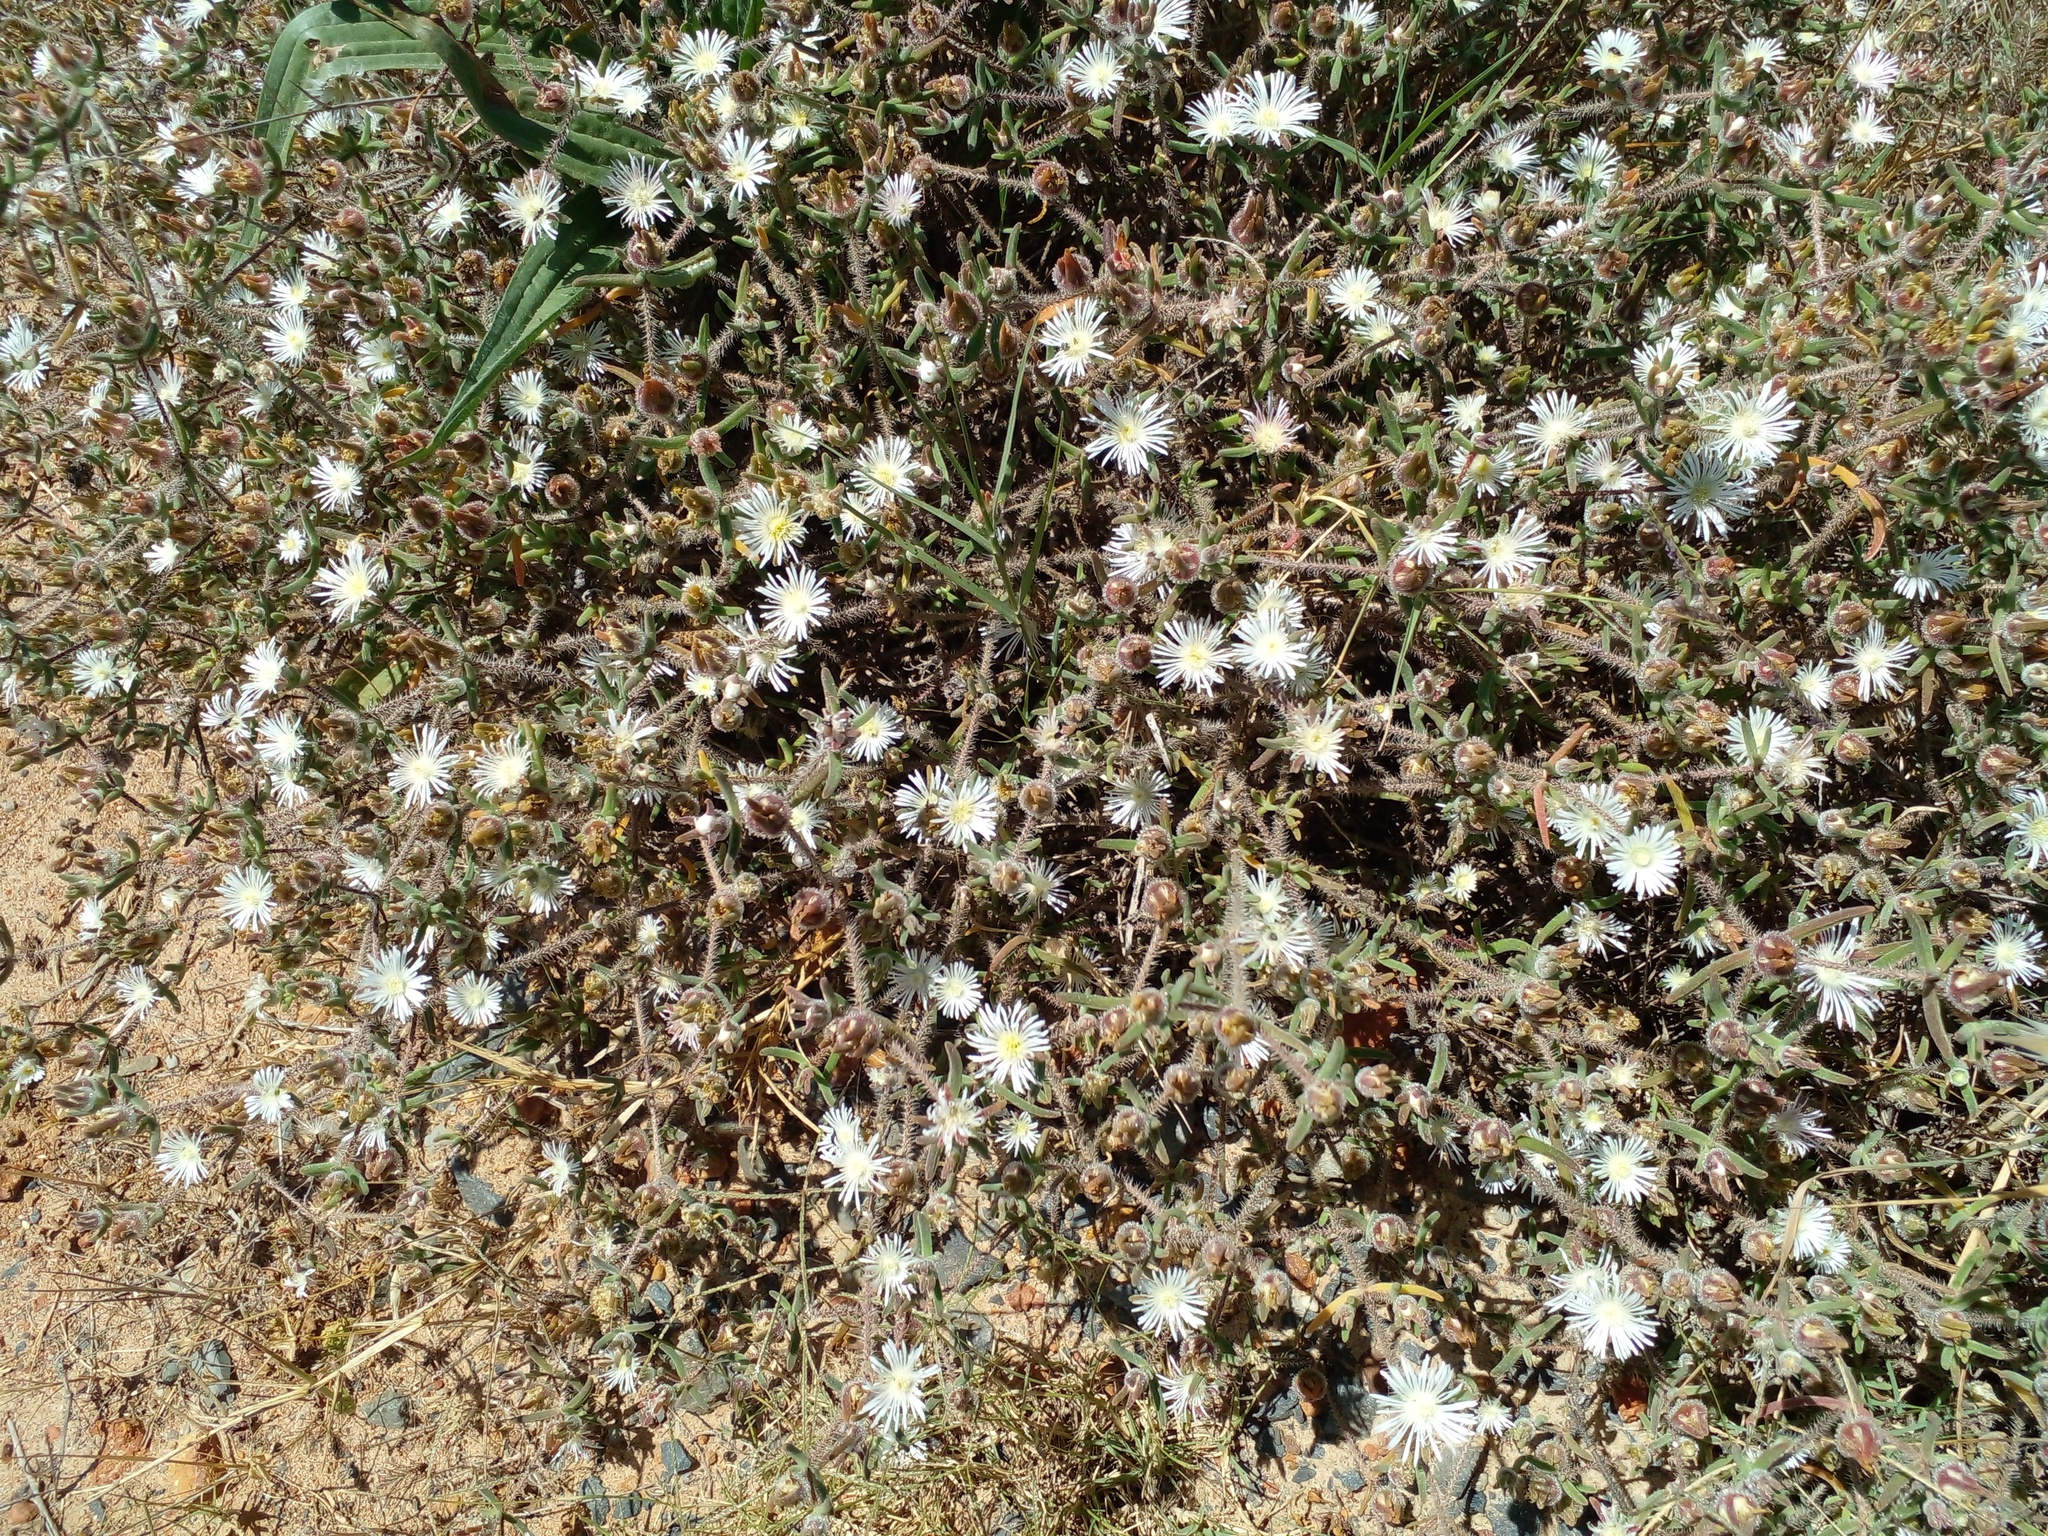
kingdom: Plantae
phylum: Tracheophyta
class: Magnoliopsida
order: Caryophyllales
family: Aizoaceae
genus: Drosanthemum
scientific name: Drosanthemum calycinum
